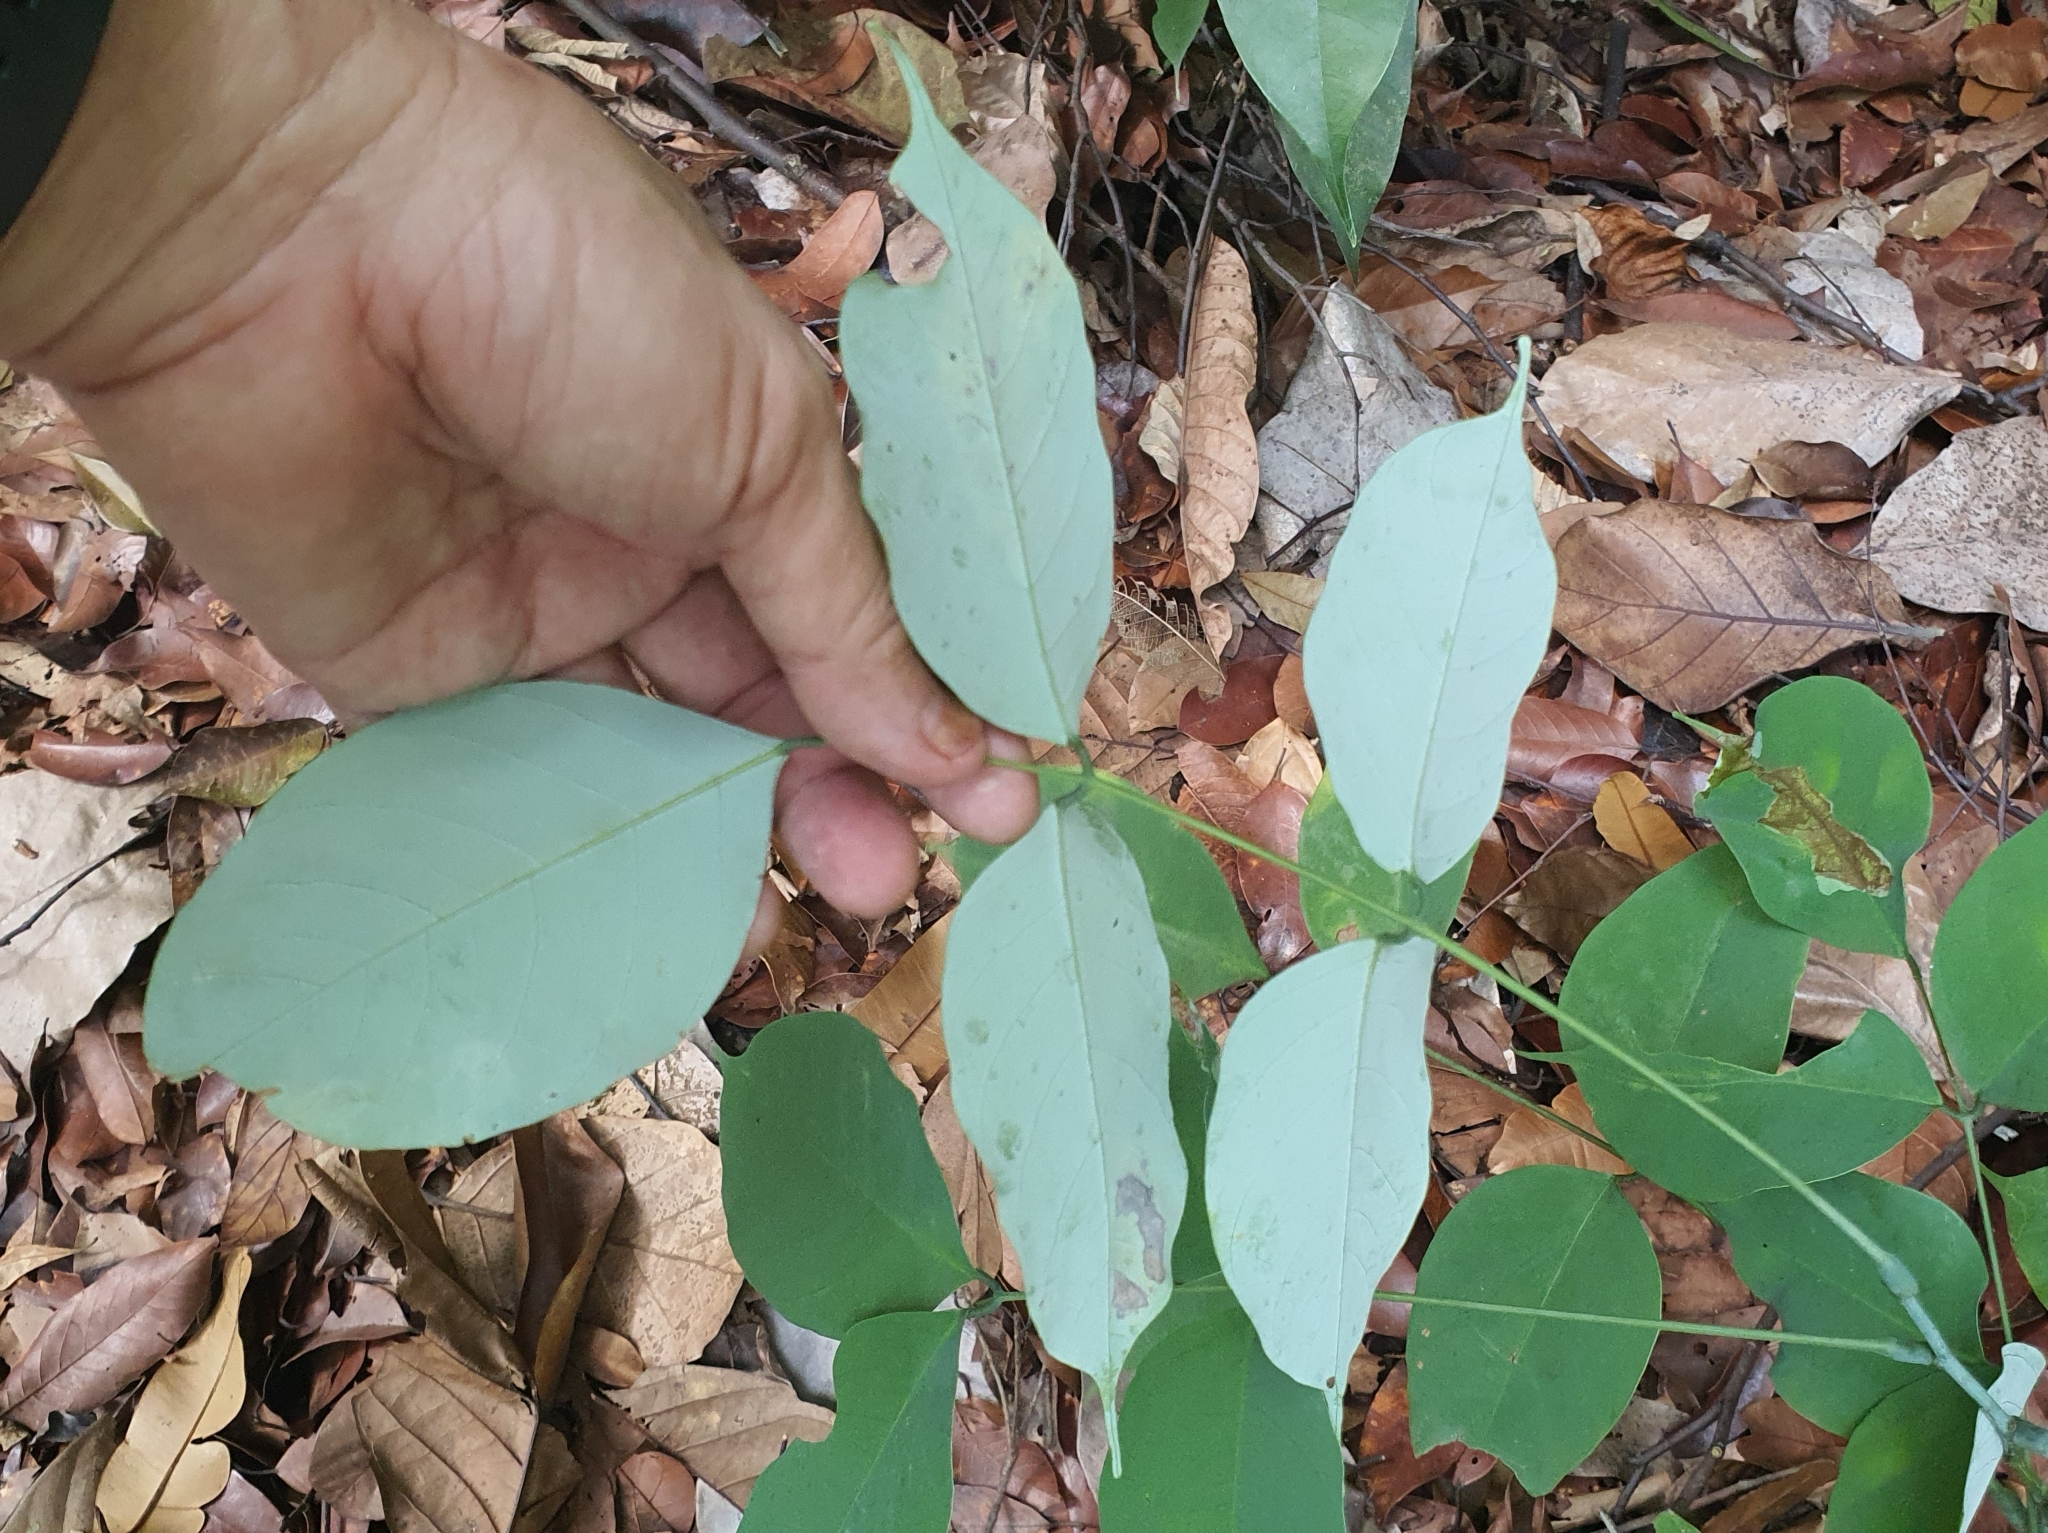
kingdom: Plantae
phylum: Tracheophyta
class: Magnoliopsida
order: Fabales
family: Fabaceae
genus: Derris
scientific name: Derris amoena
